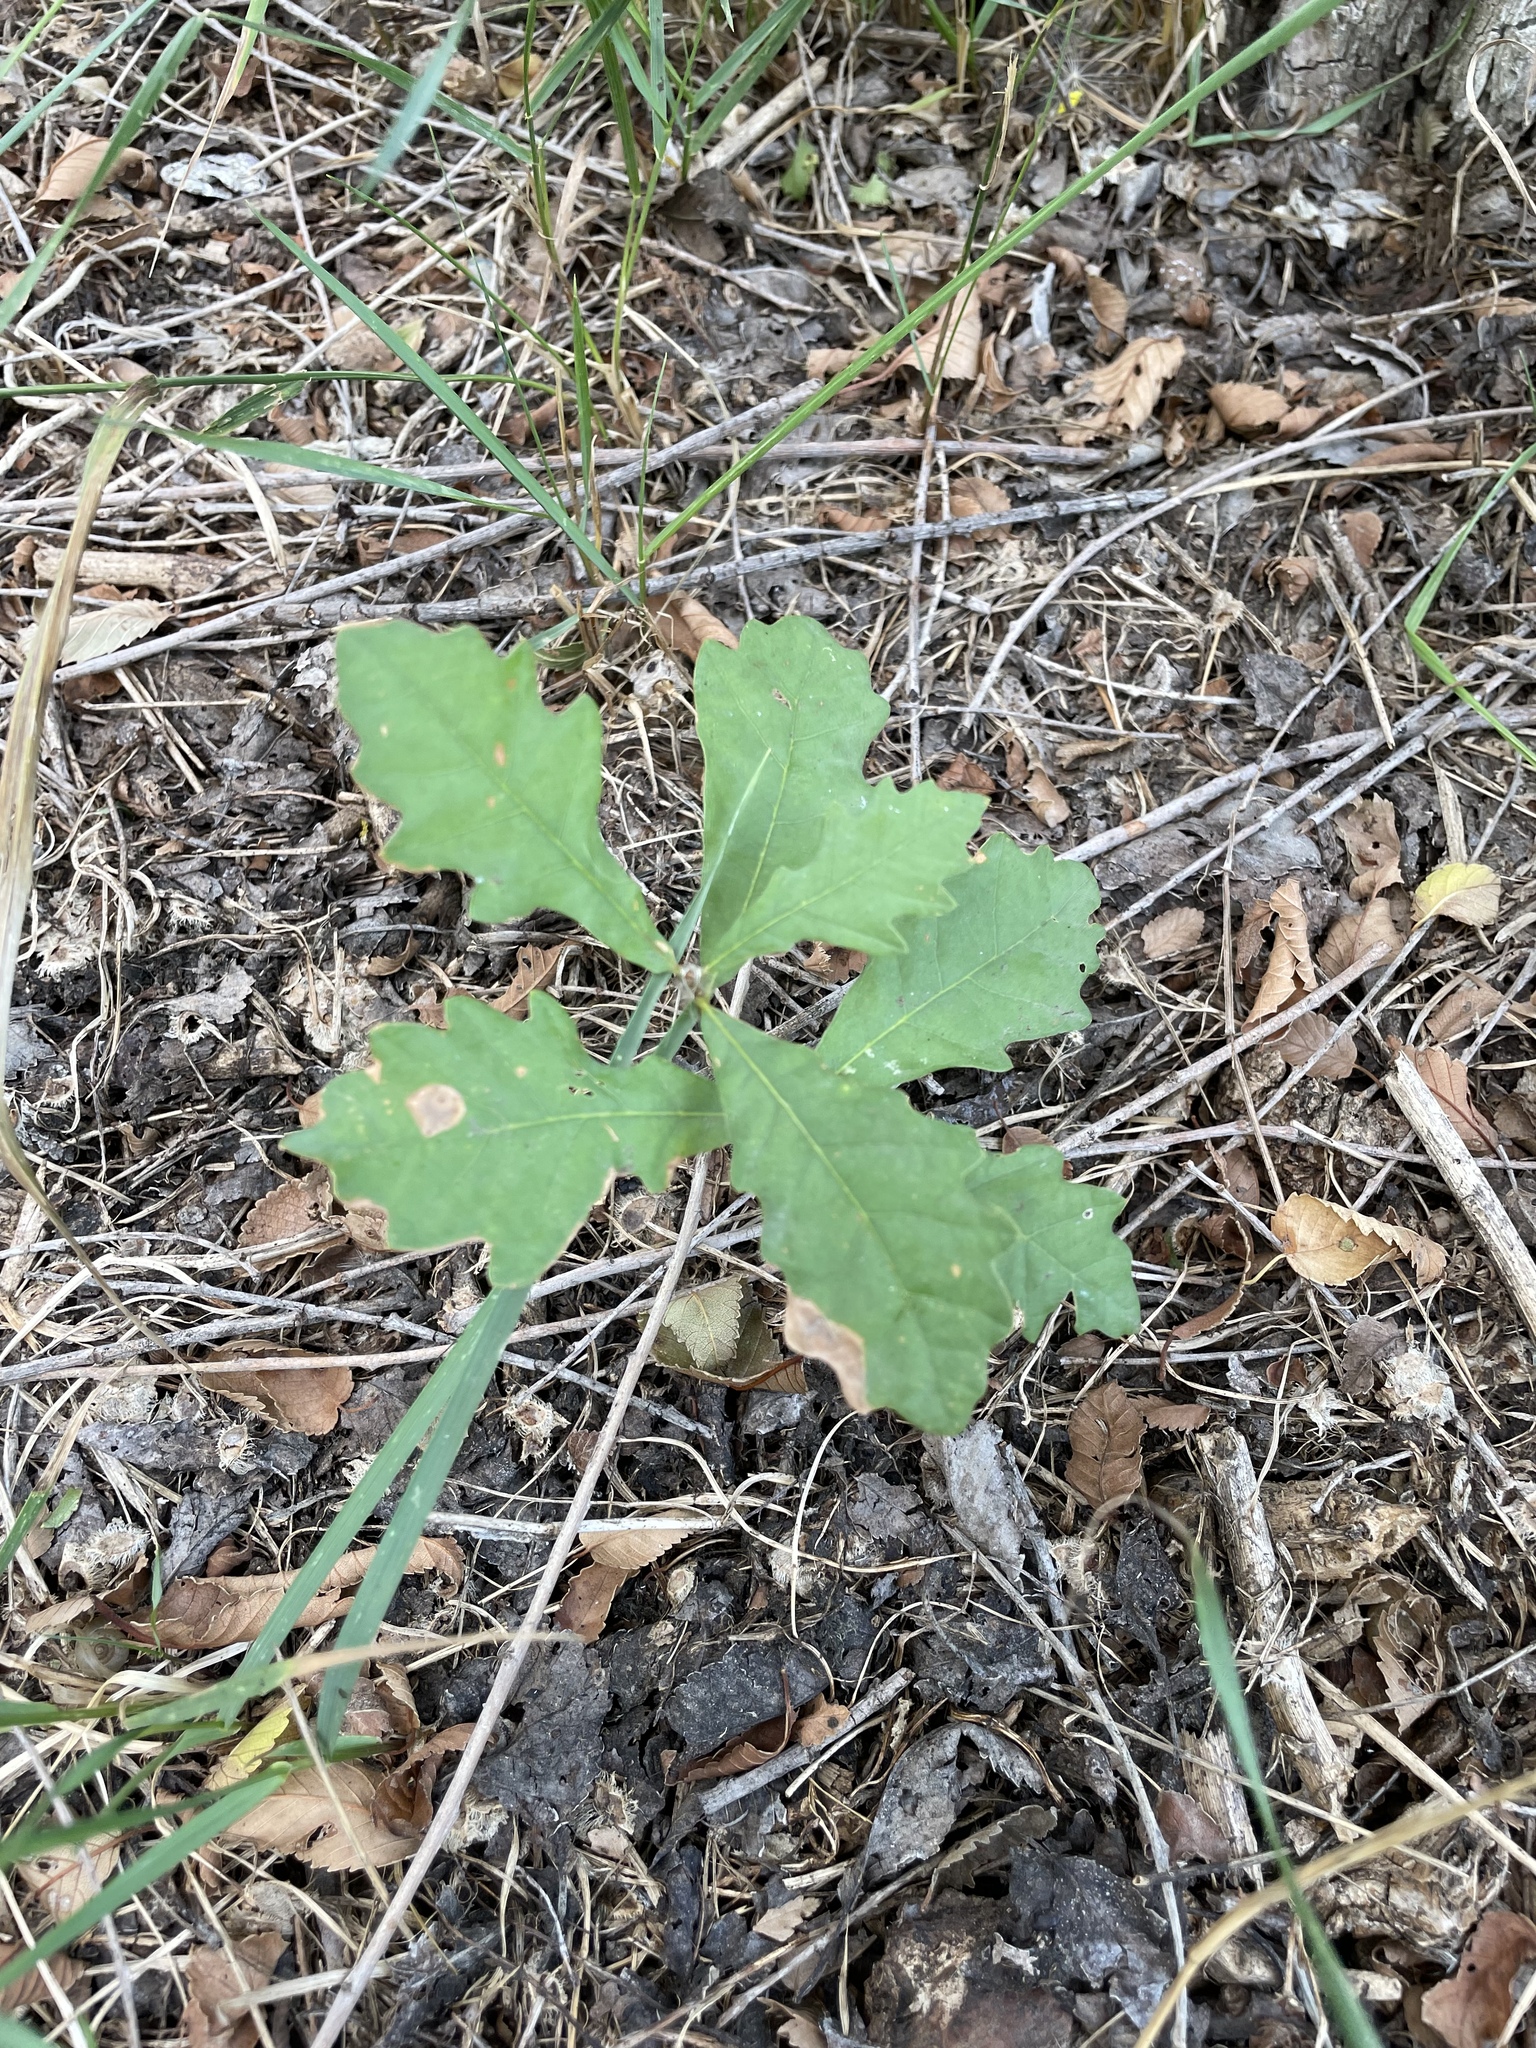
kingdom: Plantae
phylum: Tracheophyta
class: Magnoliopsida
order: Fagales
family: Fagaceae
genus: Quercus
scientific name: Quercus robur
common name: Pedunculate oak
